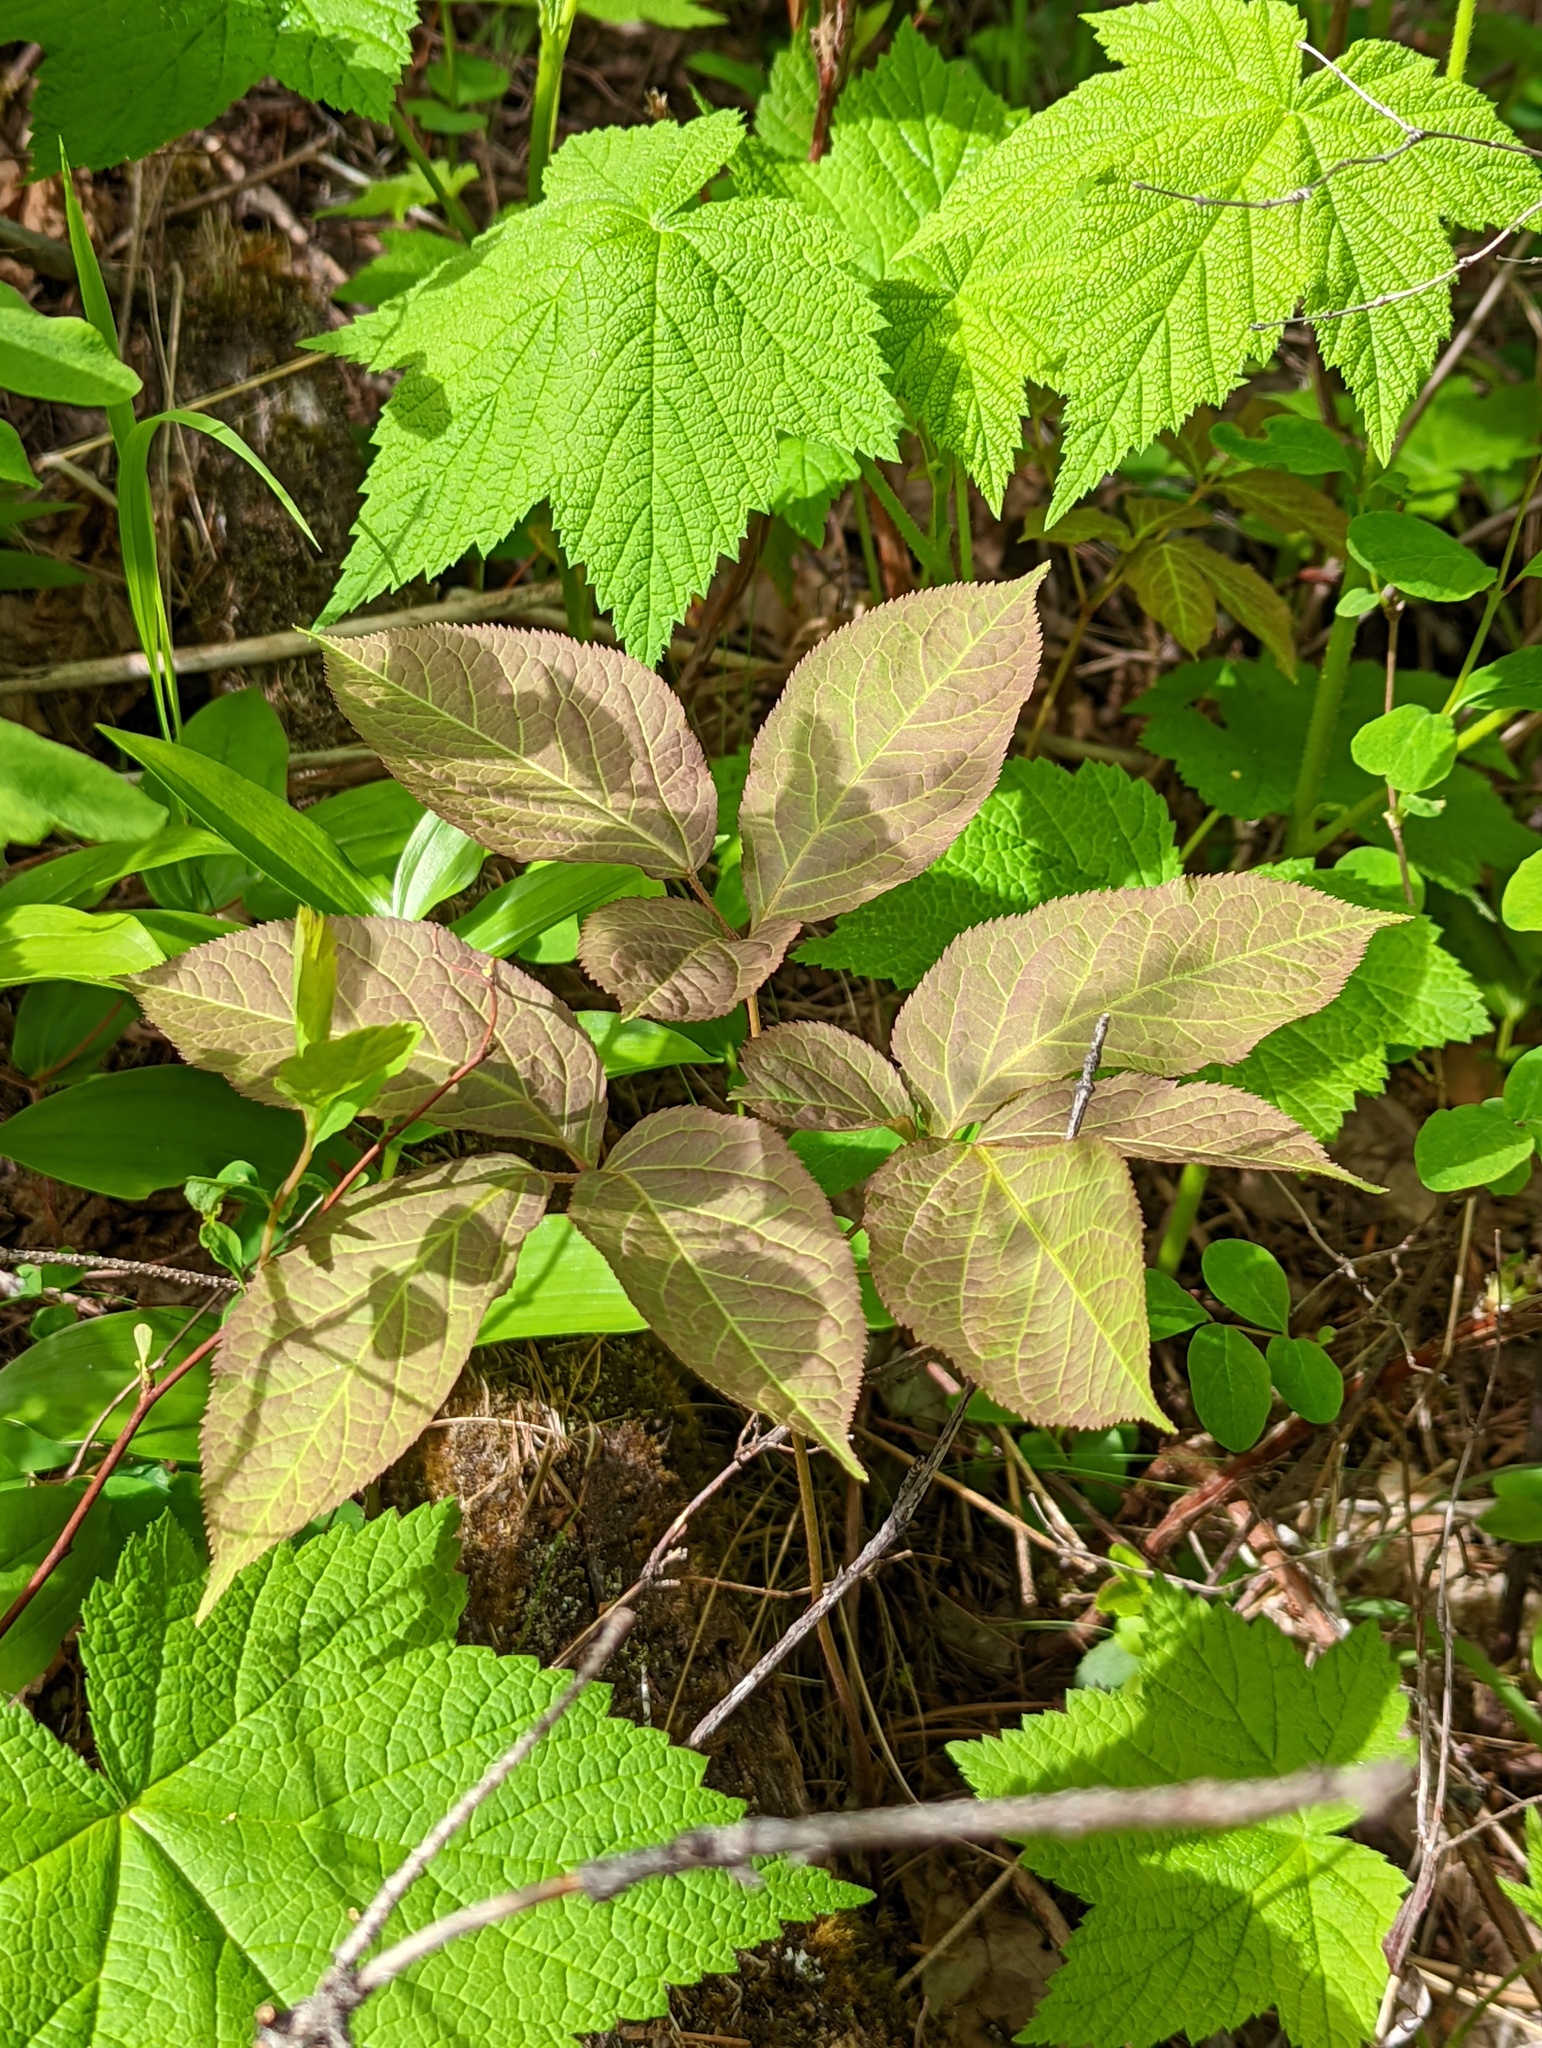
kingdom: Plantae
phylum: Tracheophyta
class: Magnoliopsida
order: Apiales
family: Araliaceae
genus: Aralia
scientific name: Aralia nudicaulis
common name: Wild sarsaparilla
